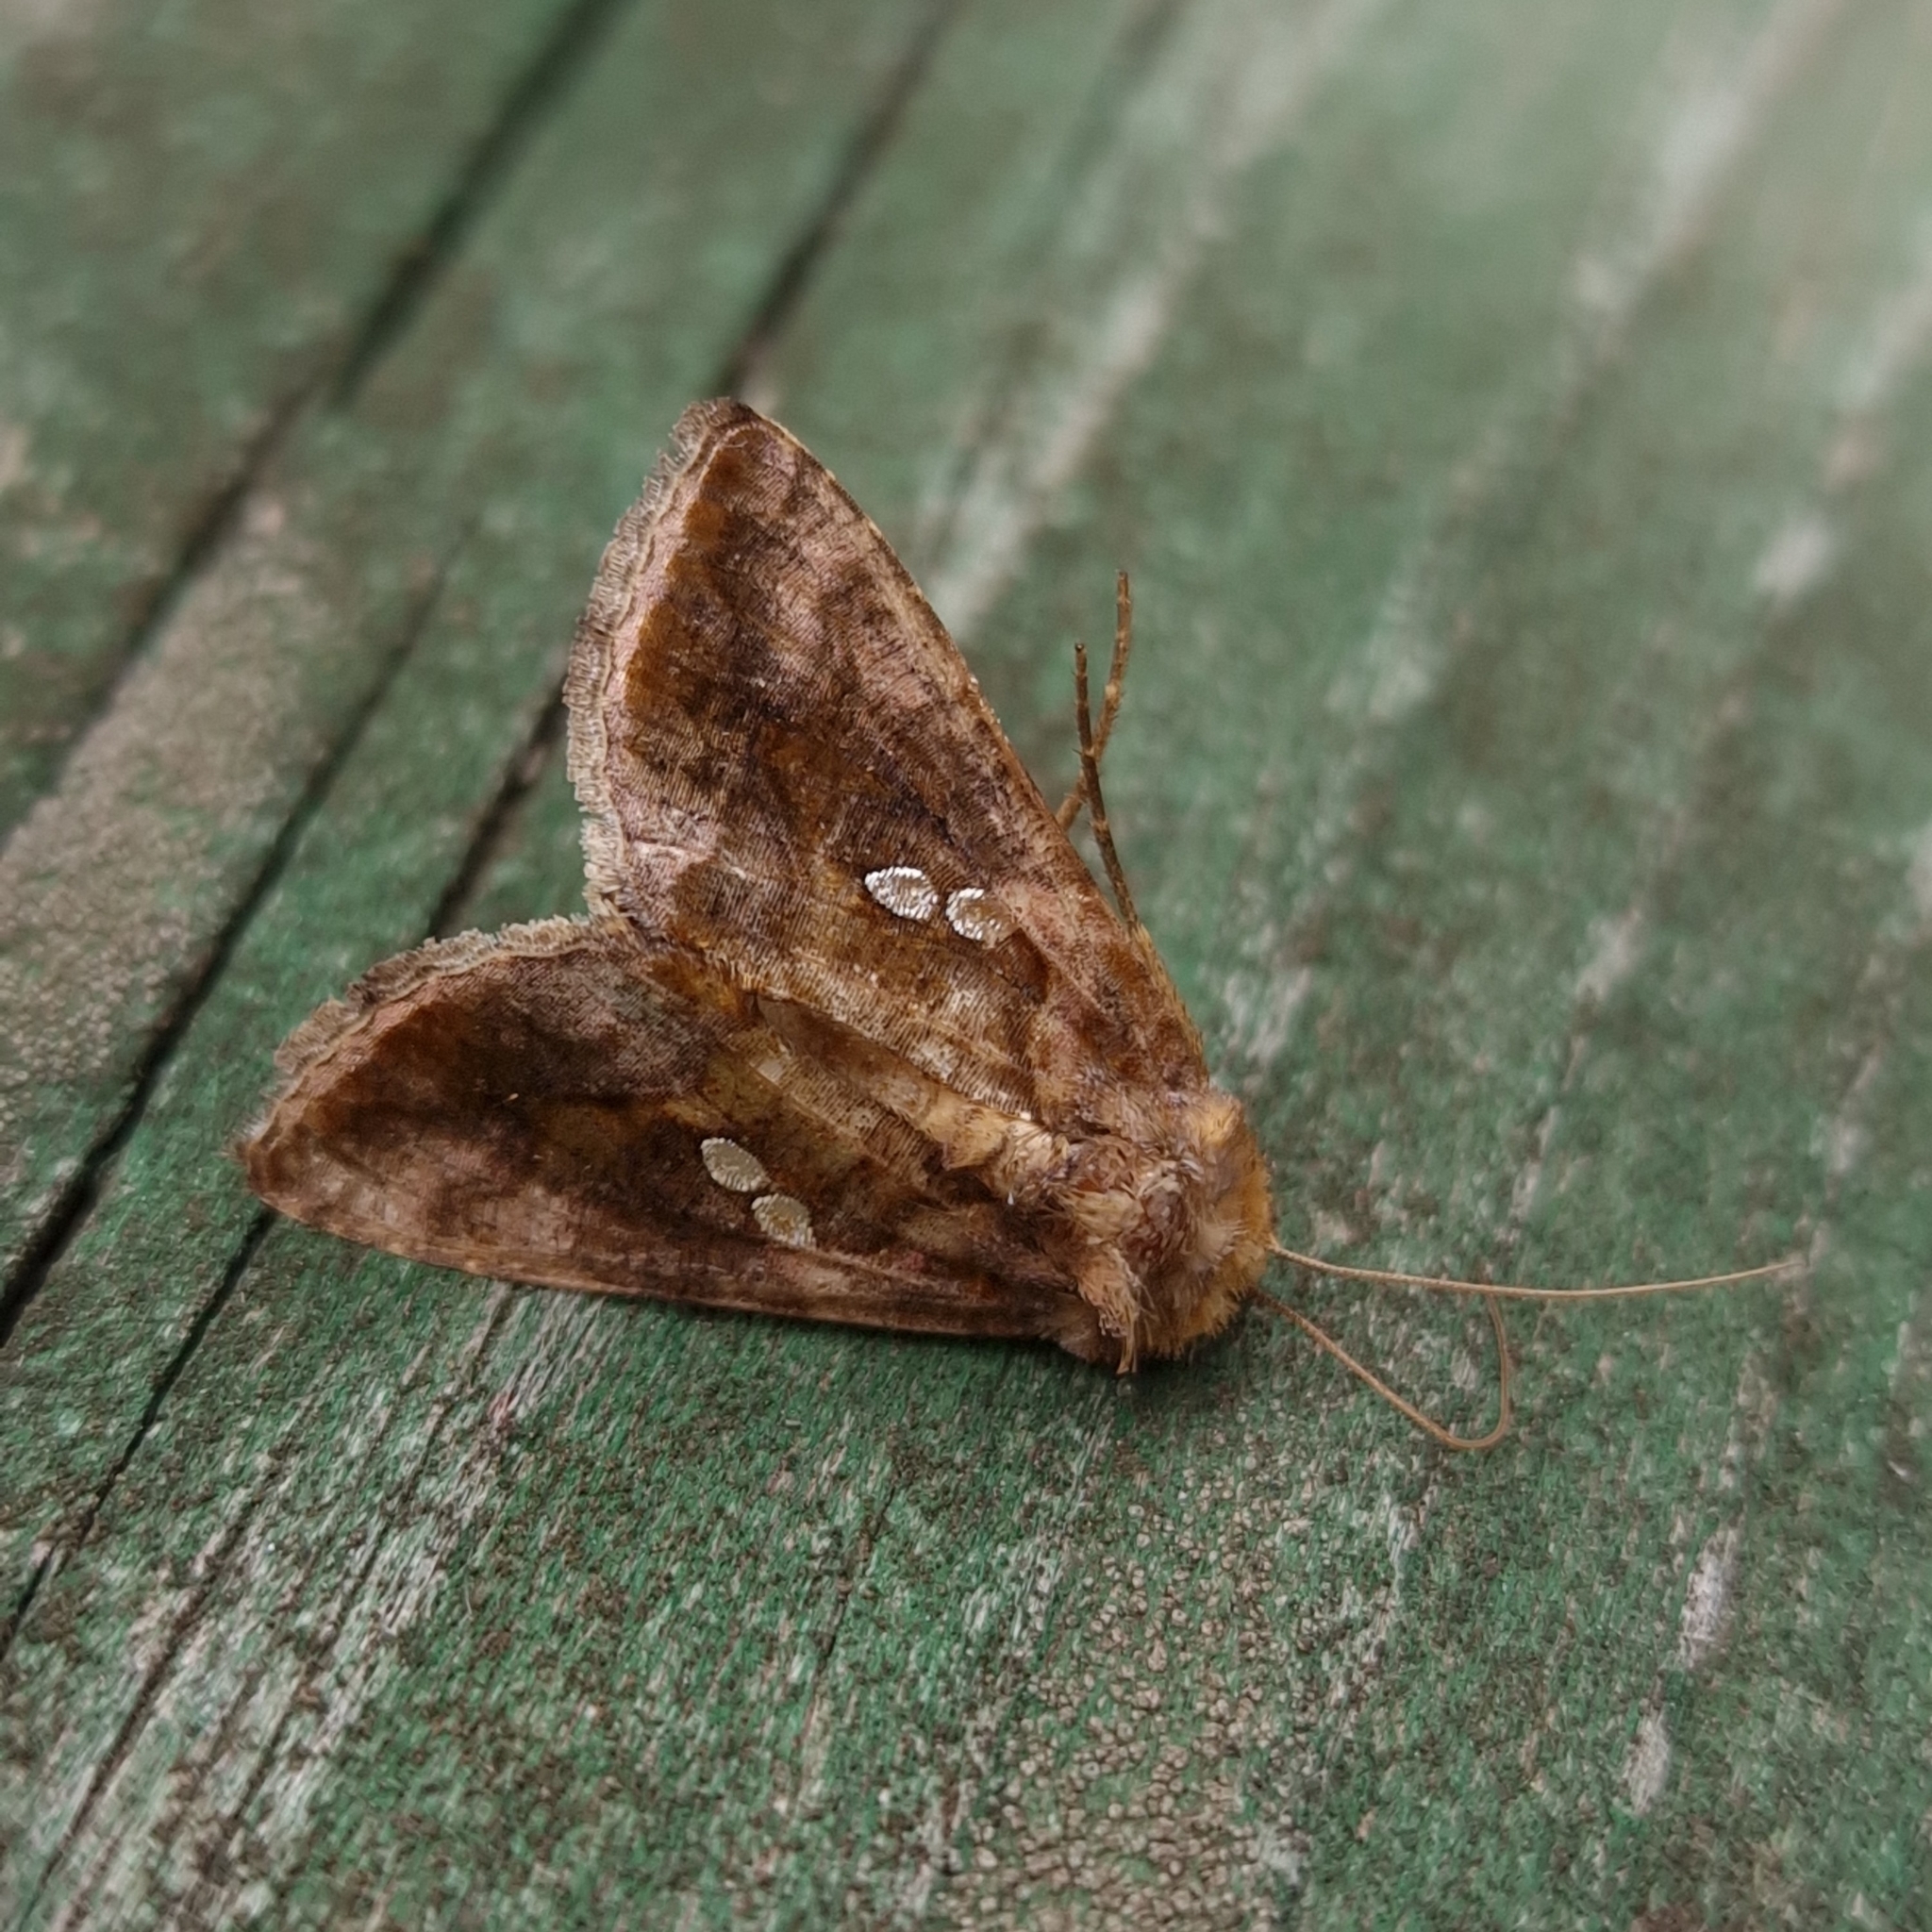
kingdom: Animalia
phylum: Arthropoda
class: Insecta
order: Lepidoptera
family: Noctuidae
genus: Chrysodeixis
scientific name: Chrysodeixis chalcites
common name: Golden twin-spot
